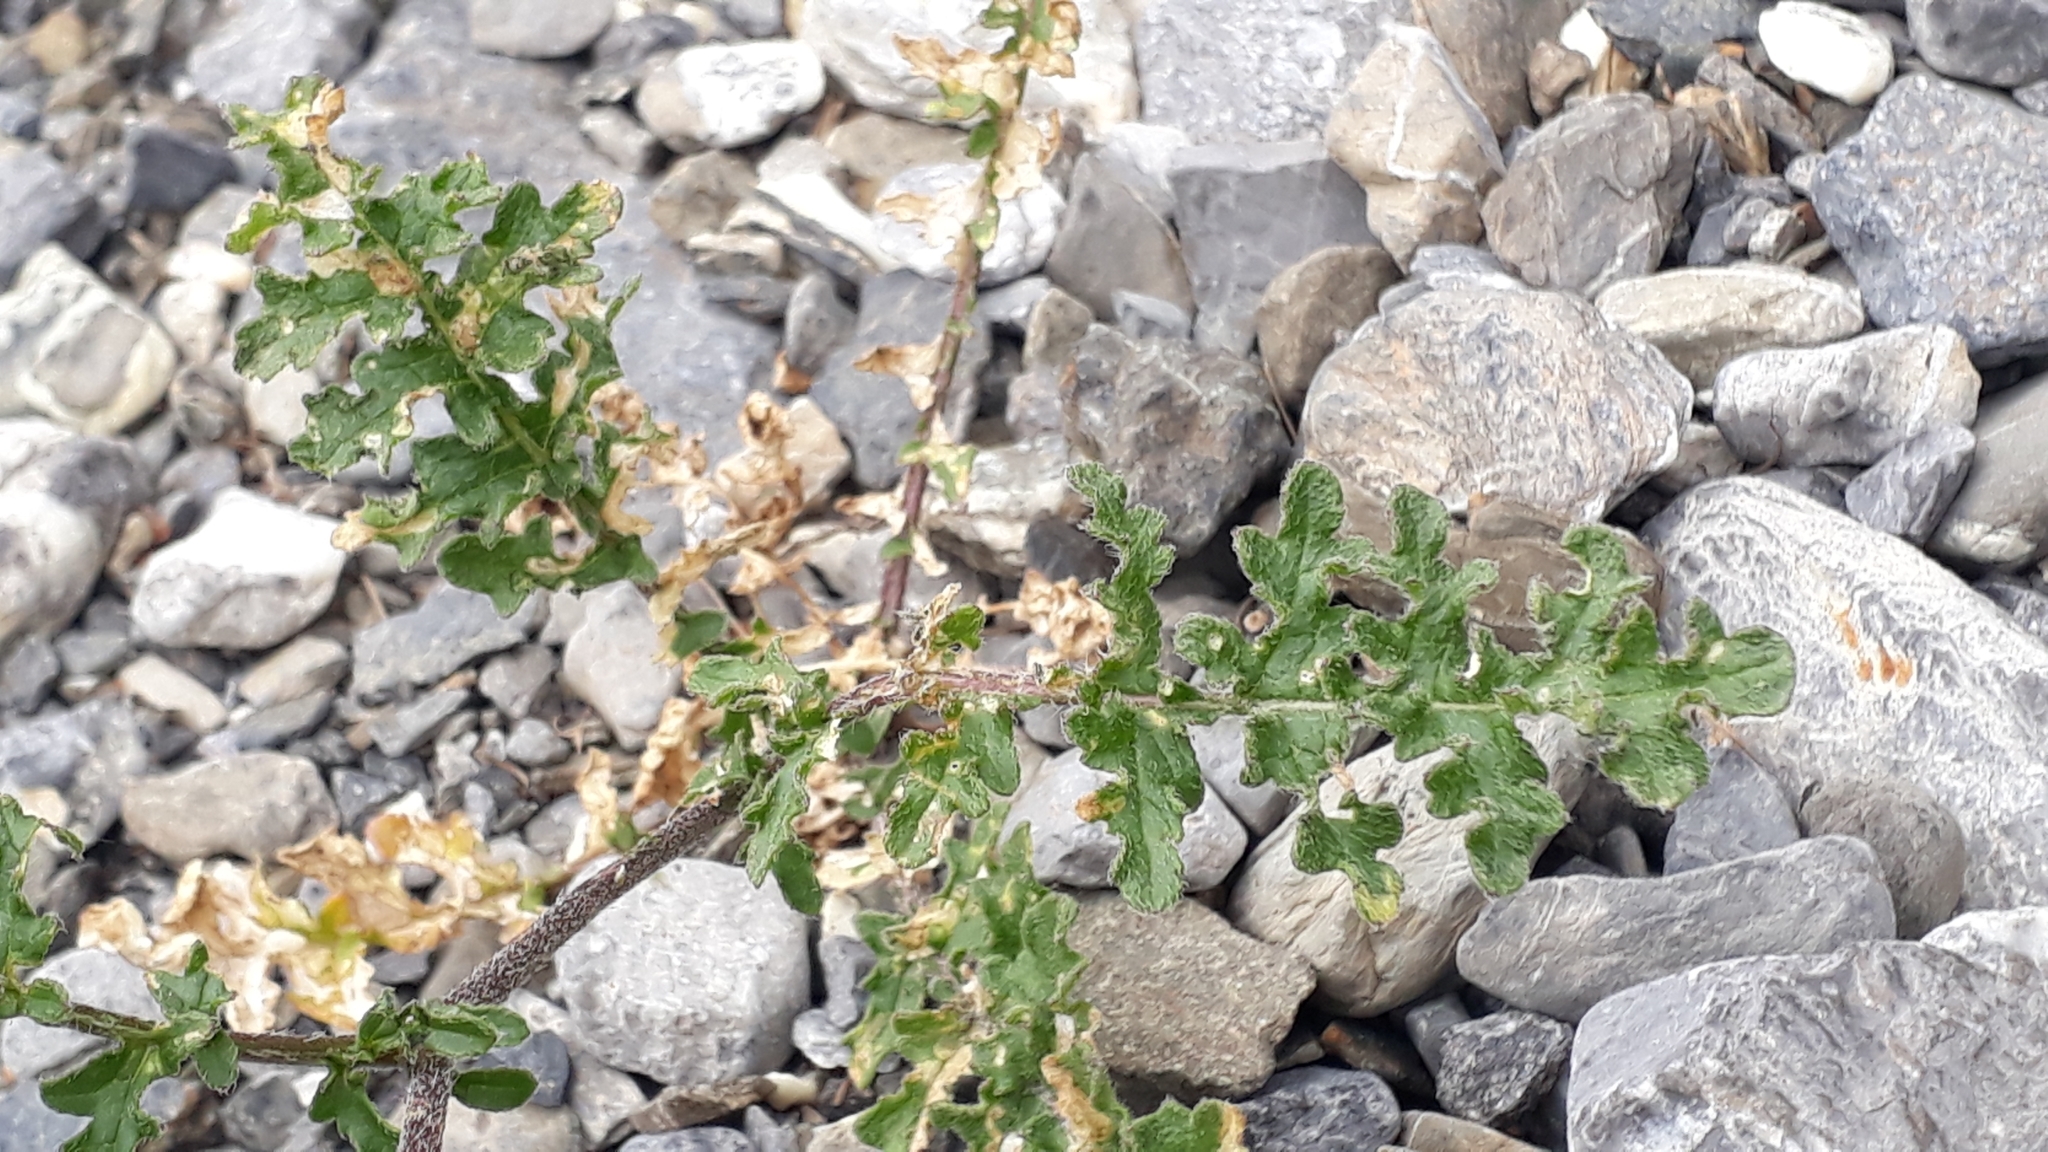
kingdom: Plantae
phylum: Tracheophyta
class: Magnoliopsida
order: Brassicales
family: Brassicaceae
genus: Erucastrum
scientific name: Erucastrum nasturtiifolium
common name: Watercress-leaf rocket
